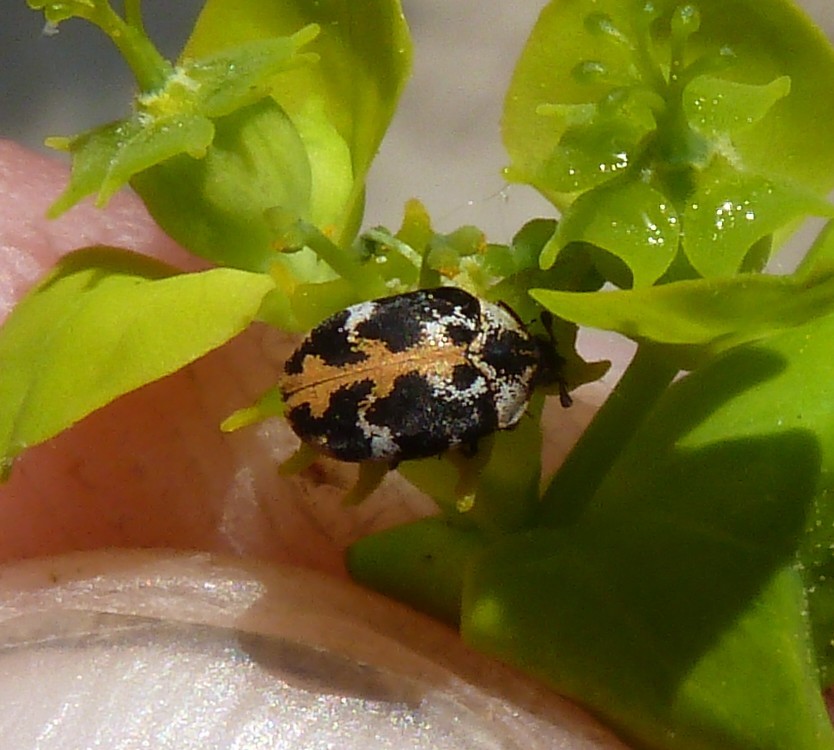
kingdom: Animalia
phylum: Arthropoda
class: Insecta
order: Coleoptera
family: Dermestidae
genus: Anthrenus
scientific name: Anthrenus scrophulariae
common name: Buffalo carpet beetle
